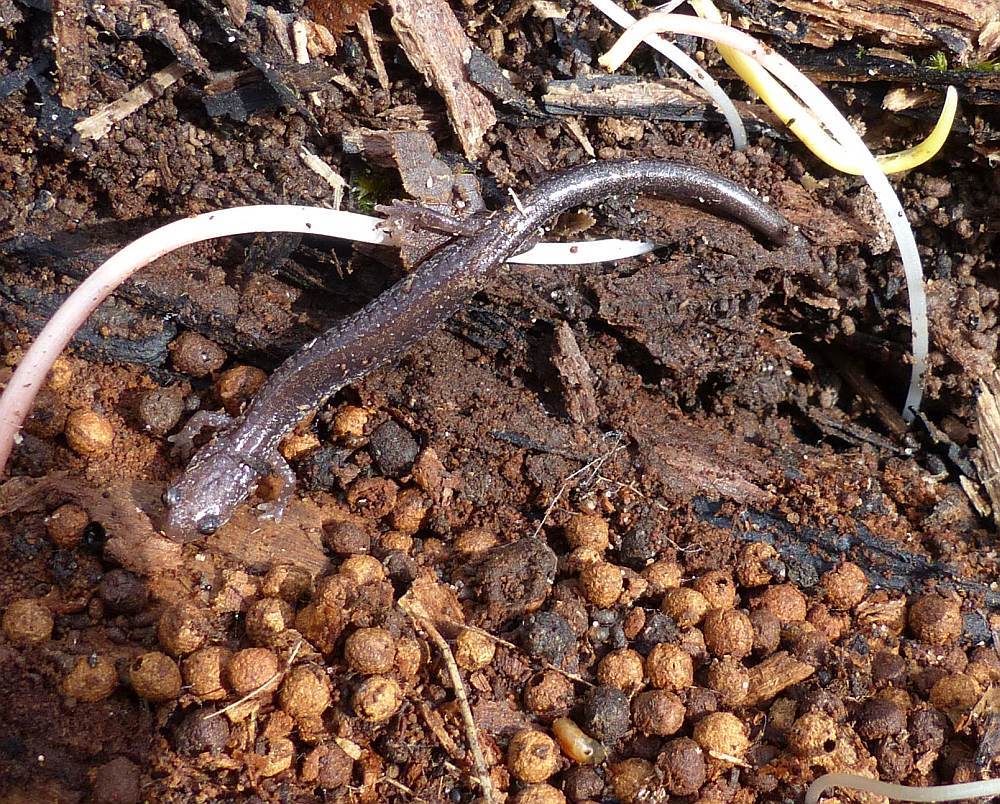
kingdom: Animalia
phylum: Chordata
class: Amphibia
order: Caudata
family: Plethodontidae
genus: Plethodon
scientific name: Plethodon cinereus
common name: Redback salamander
